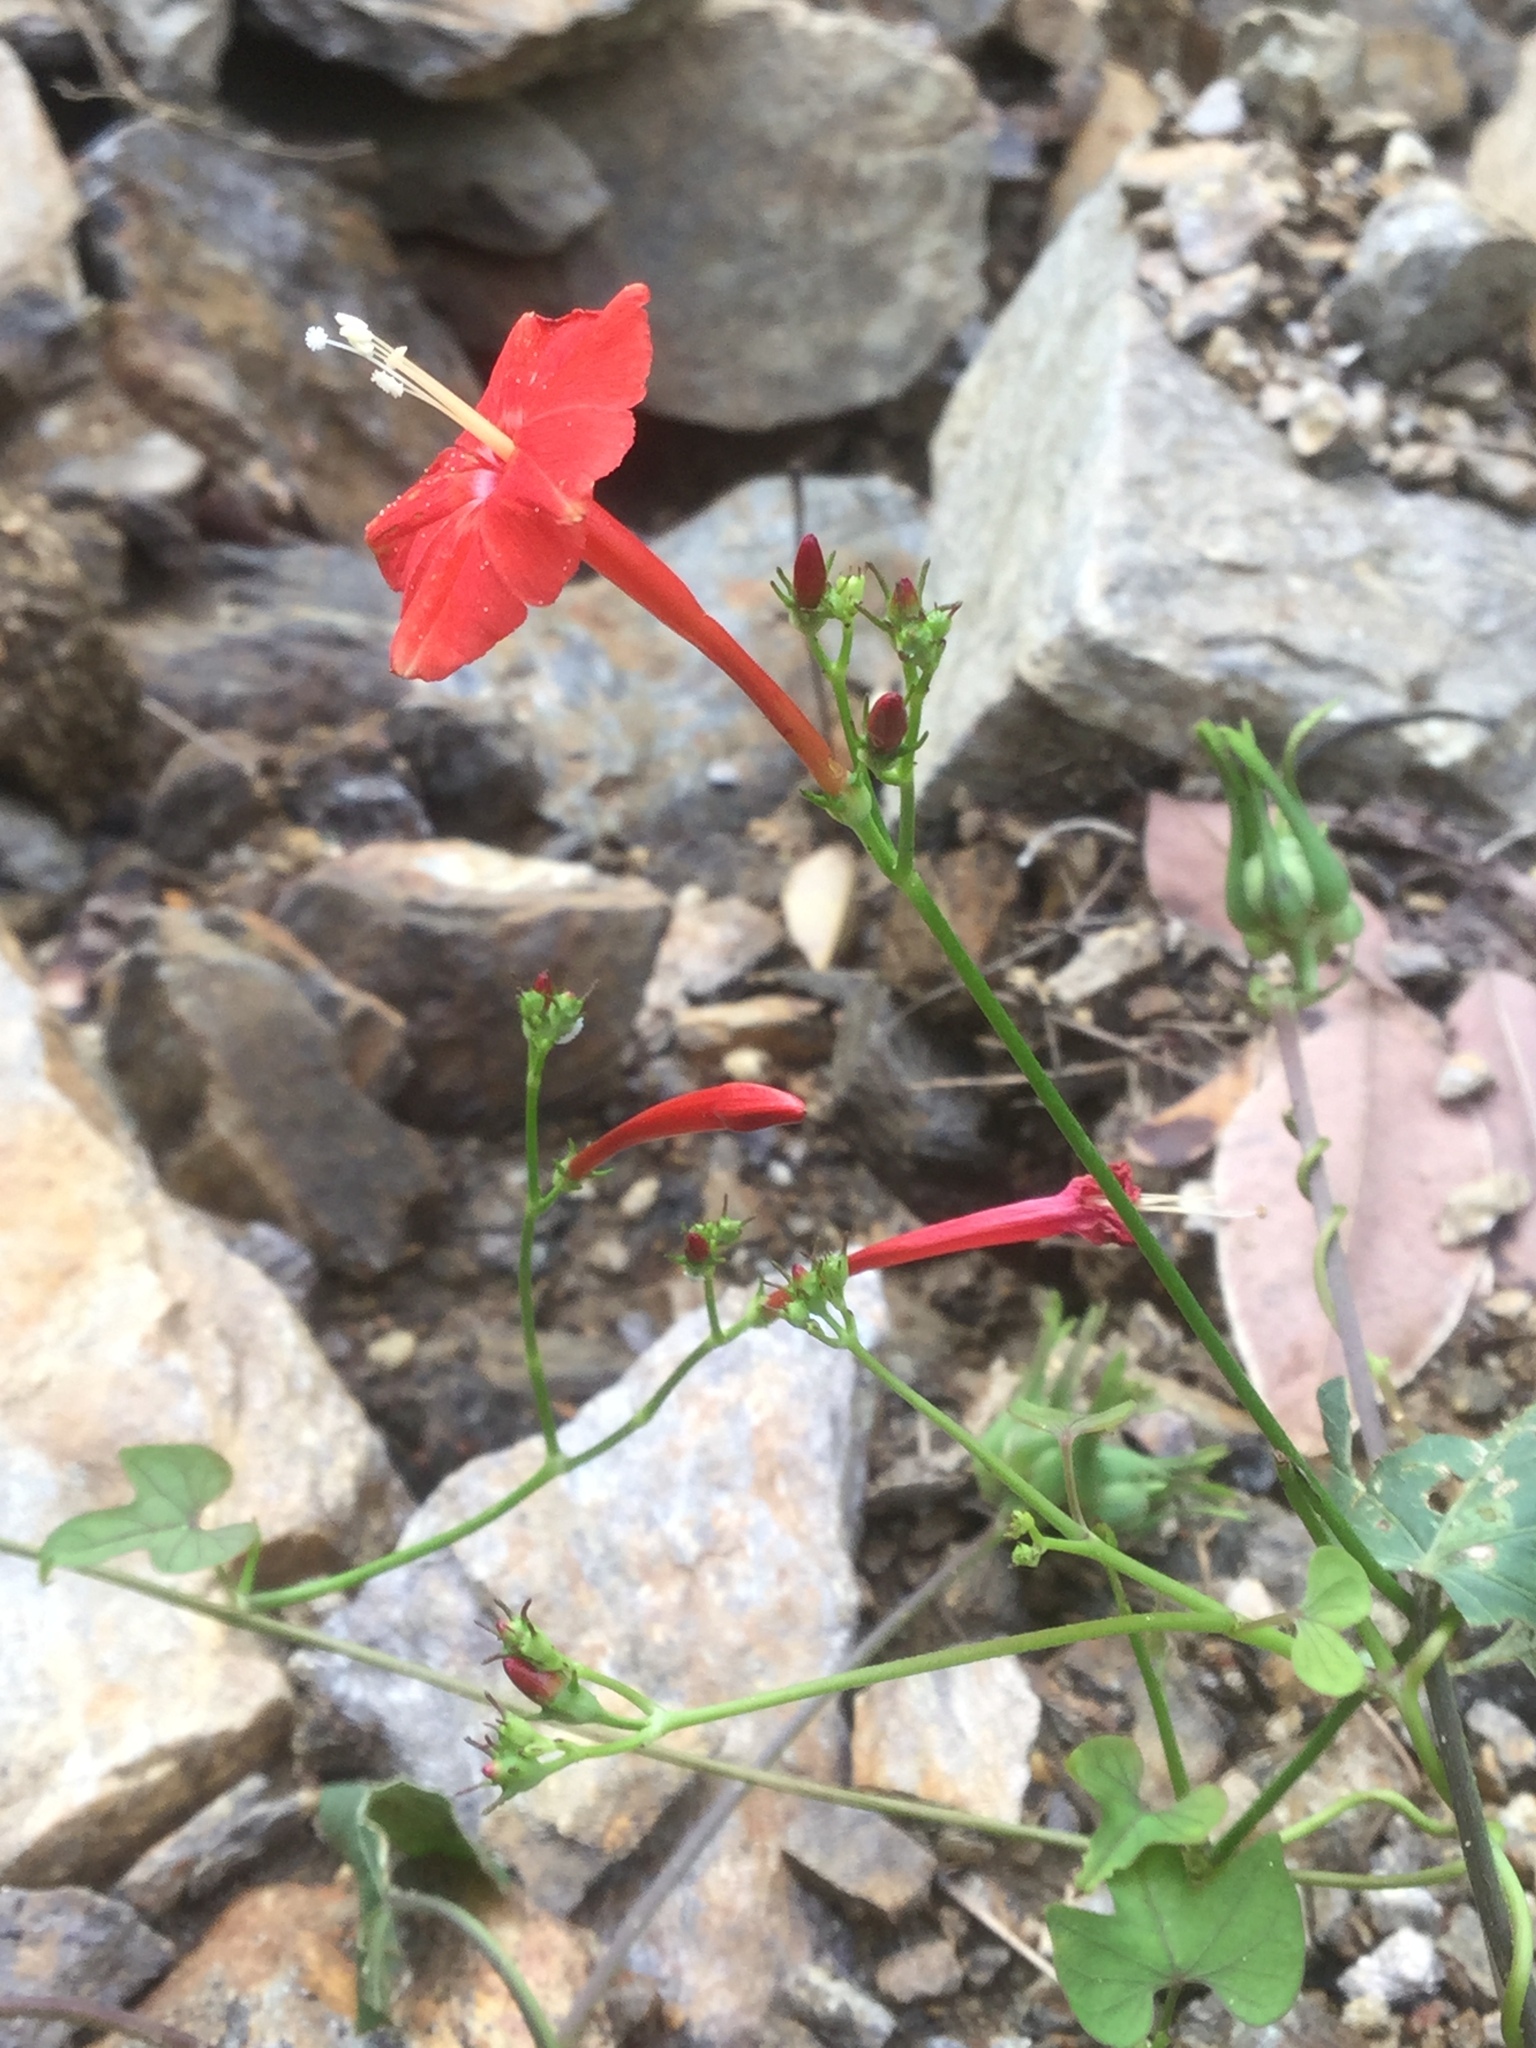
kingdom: Plantae
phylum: Tracheophyta
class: Magnoliopsida
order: Solanales
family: Convolvulaceae
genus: Ipomoea
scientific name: Ipomoea hederifolia
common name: Ivy-leaf morning-glory
